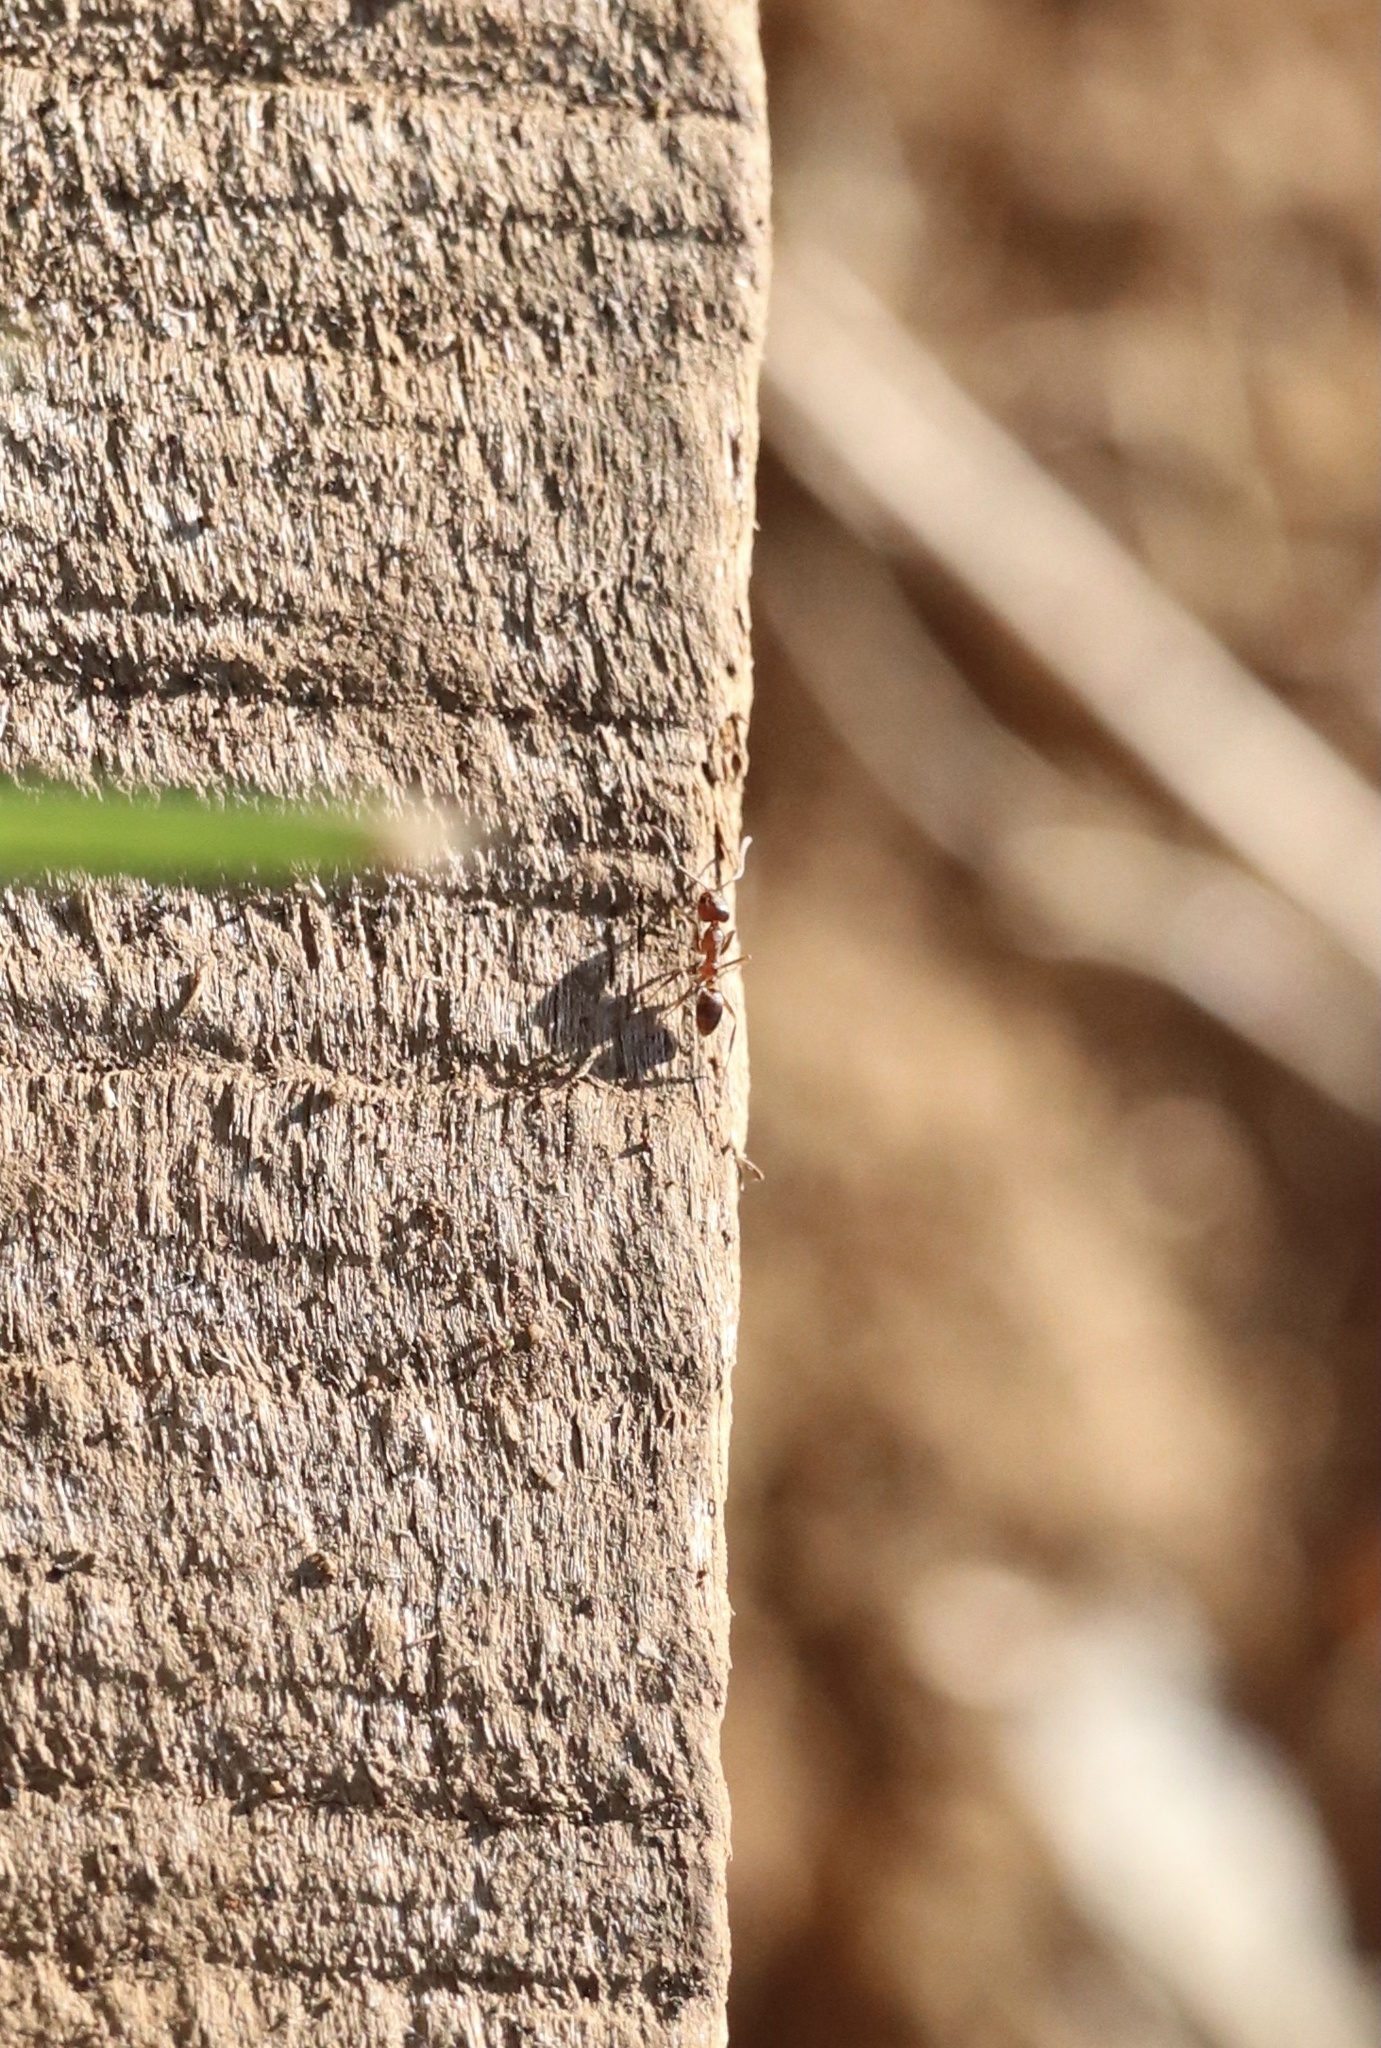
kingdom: Animalia
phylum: Arthropoda
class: Insecta
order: Hymenoptera
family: Formicidae
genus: Linepithema
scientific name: Linepithema humile
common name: Argentine ant
